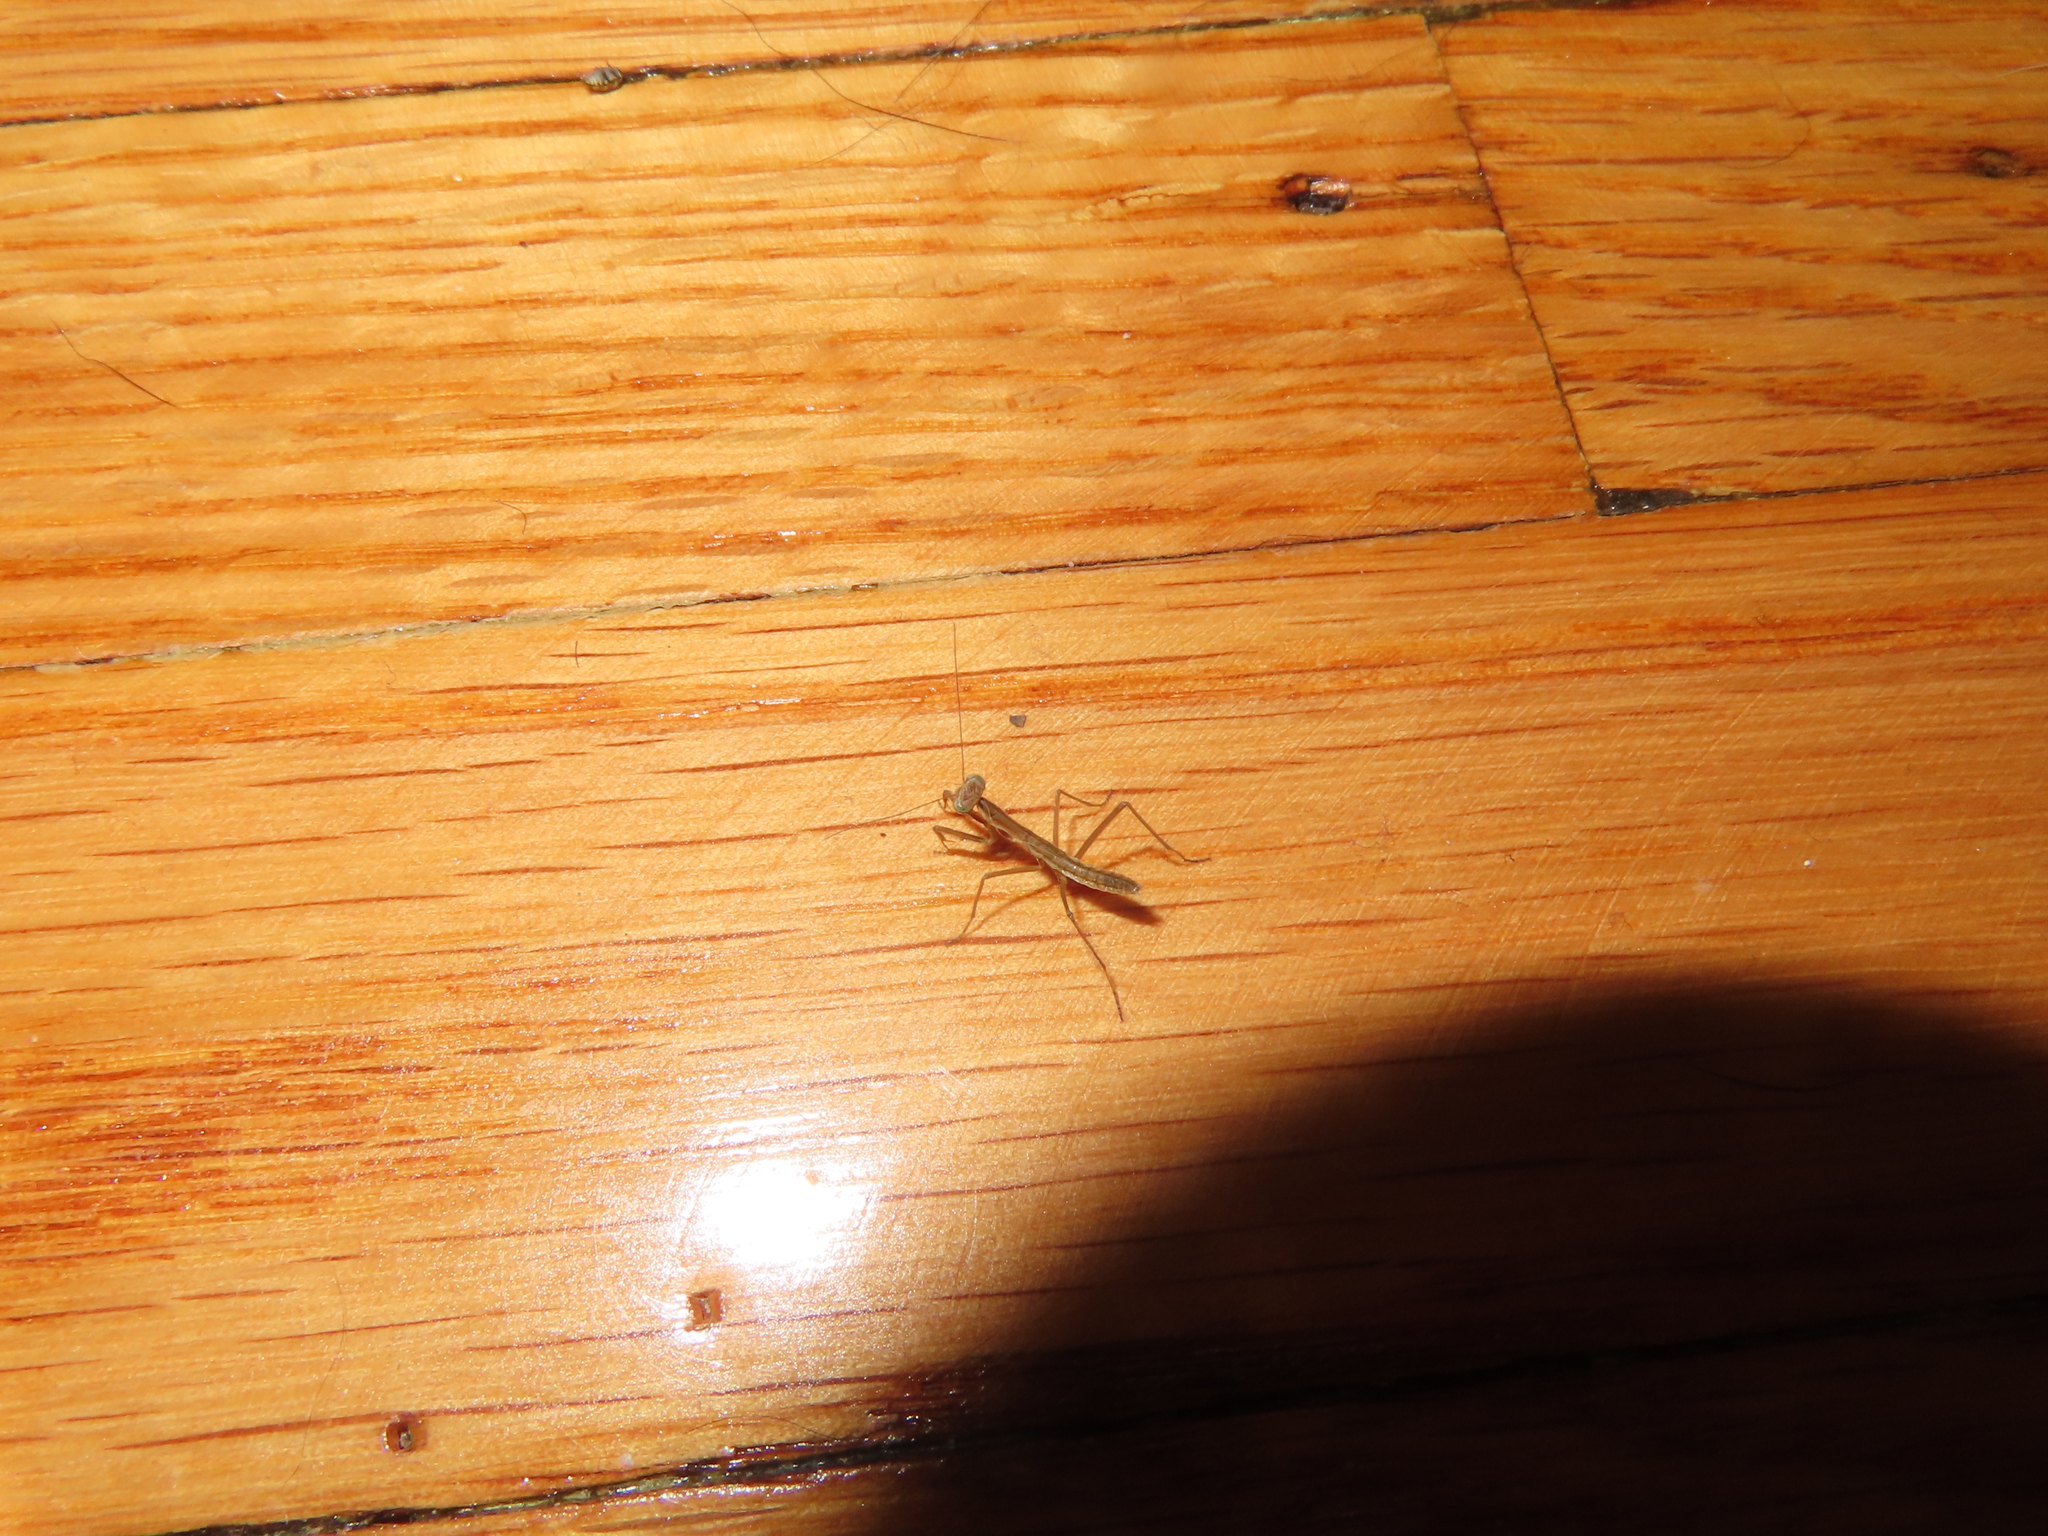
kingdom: Animalia
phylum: Arthropoda
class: Insecta
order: Mantodea
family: Mantidae
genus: Tenodera
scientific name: Tenodera sinensis
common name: Chinese mantis
